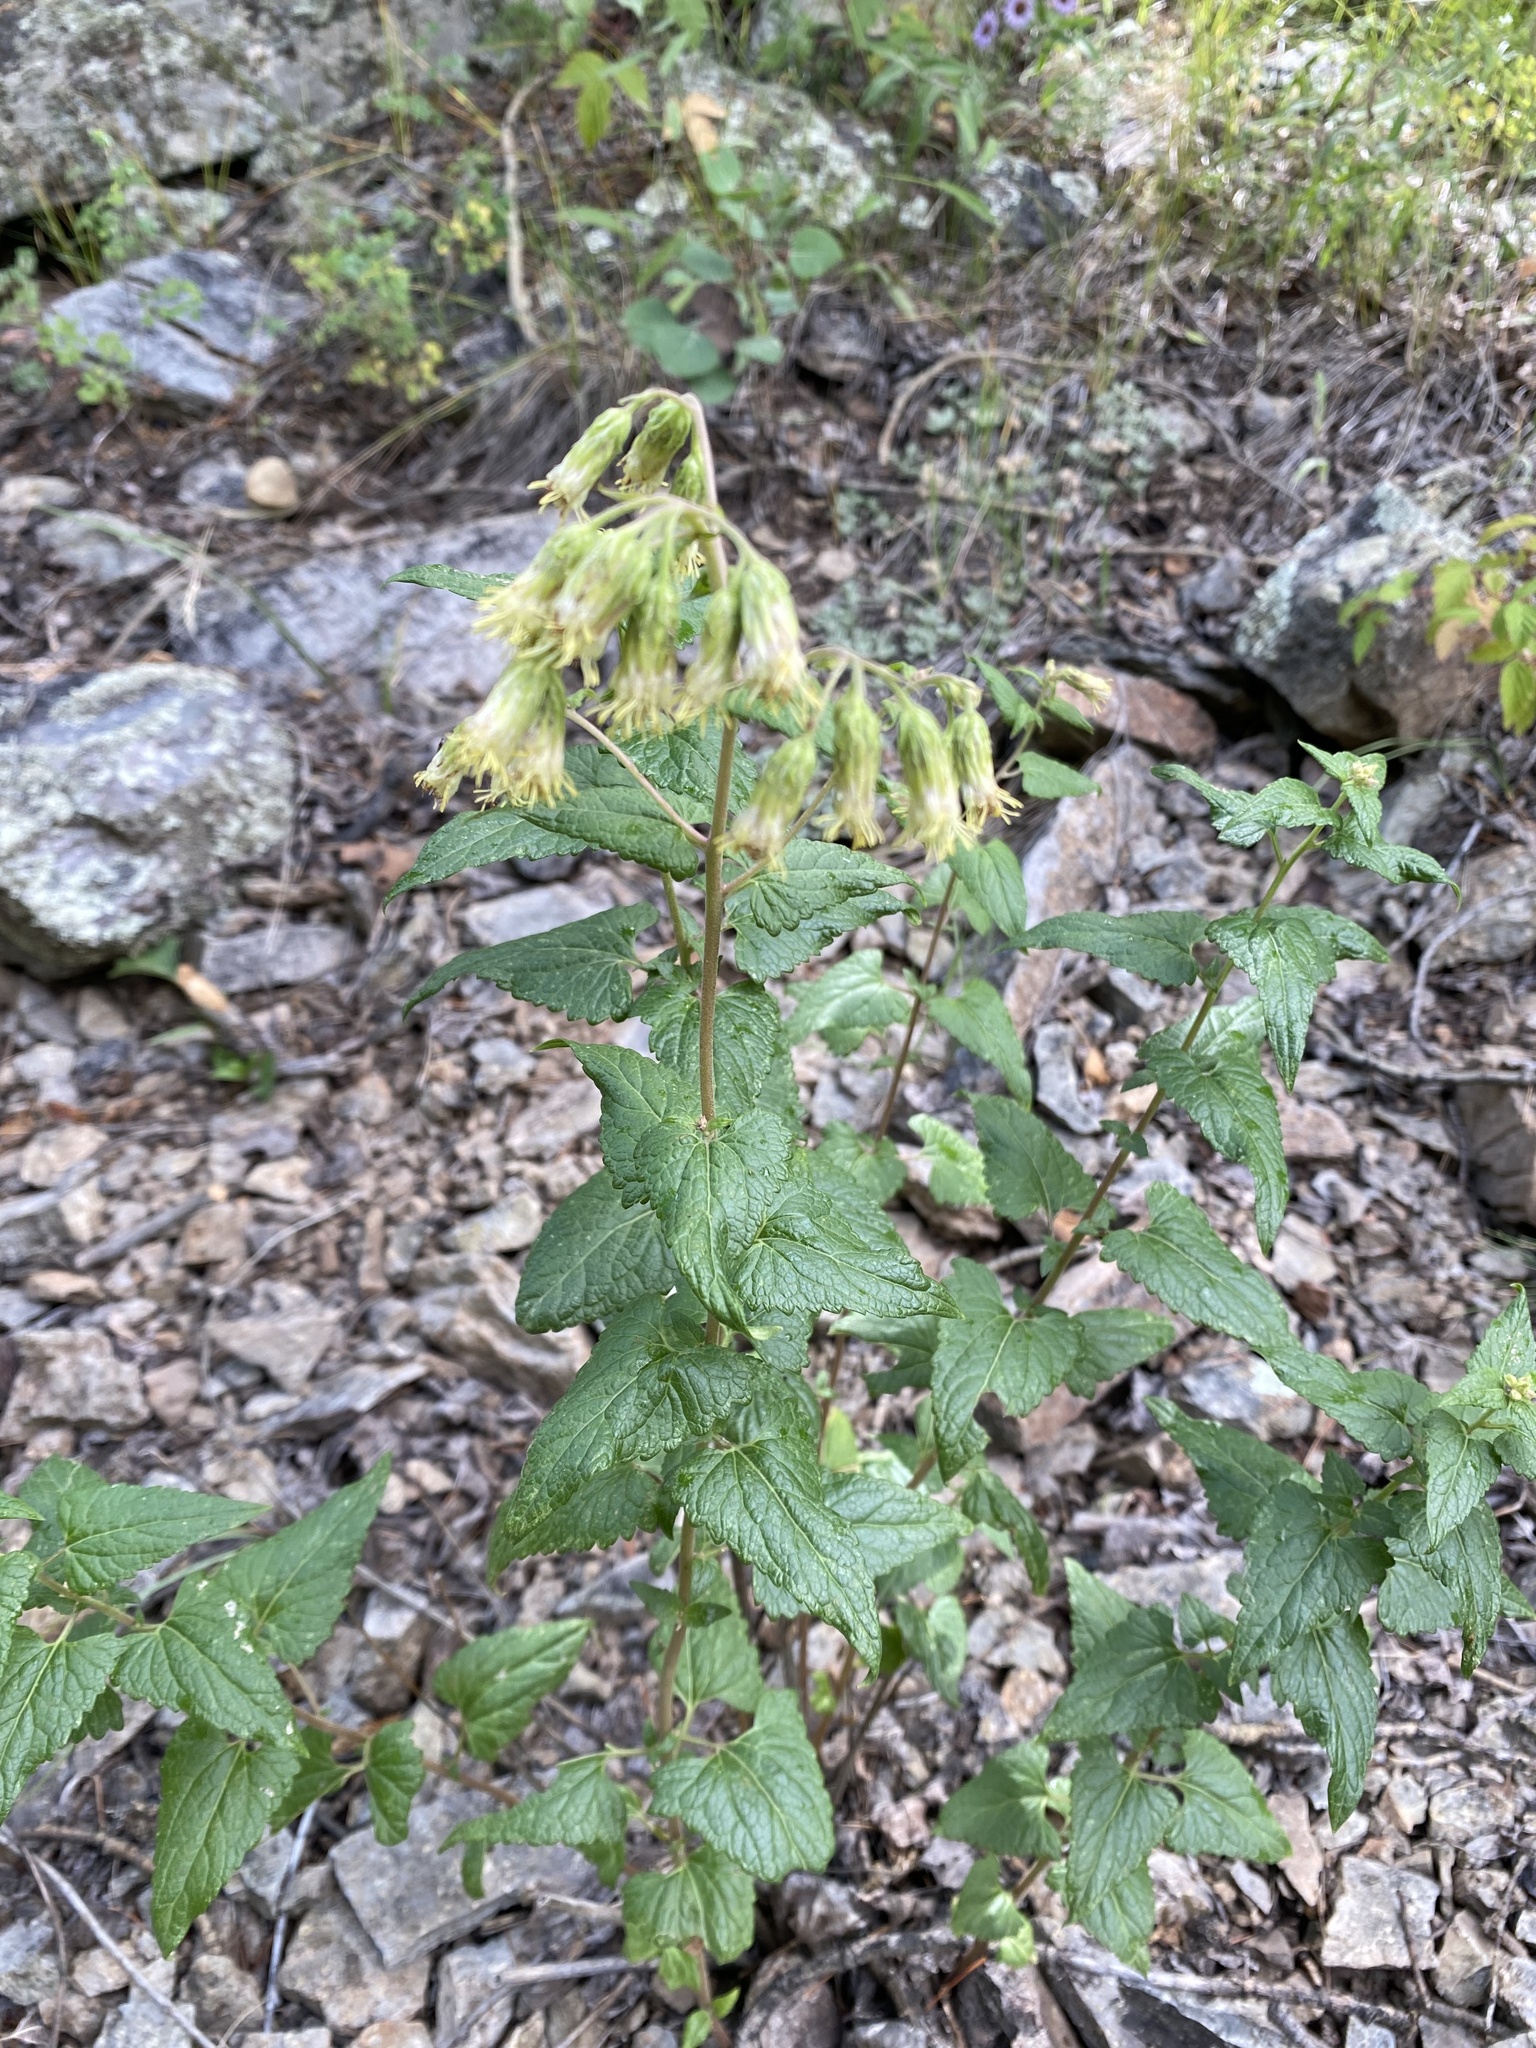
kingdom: Plantae
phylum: Tracheophyta
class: Magnoliopsida
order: Asterales
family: Asteraceae
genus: Brickellia
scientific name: Brickellia grandiflora
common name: Large-flowered brickellia
